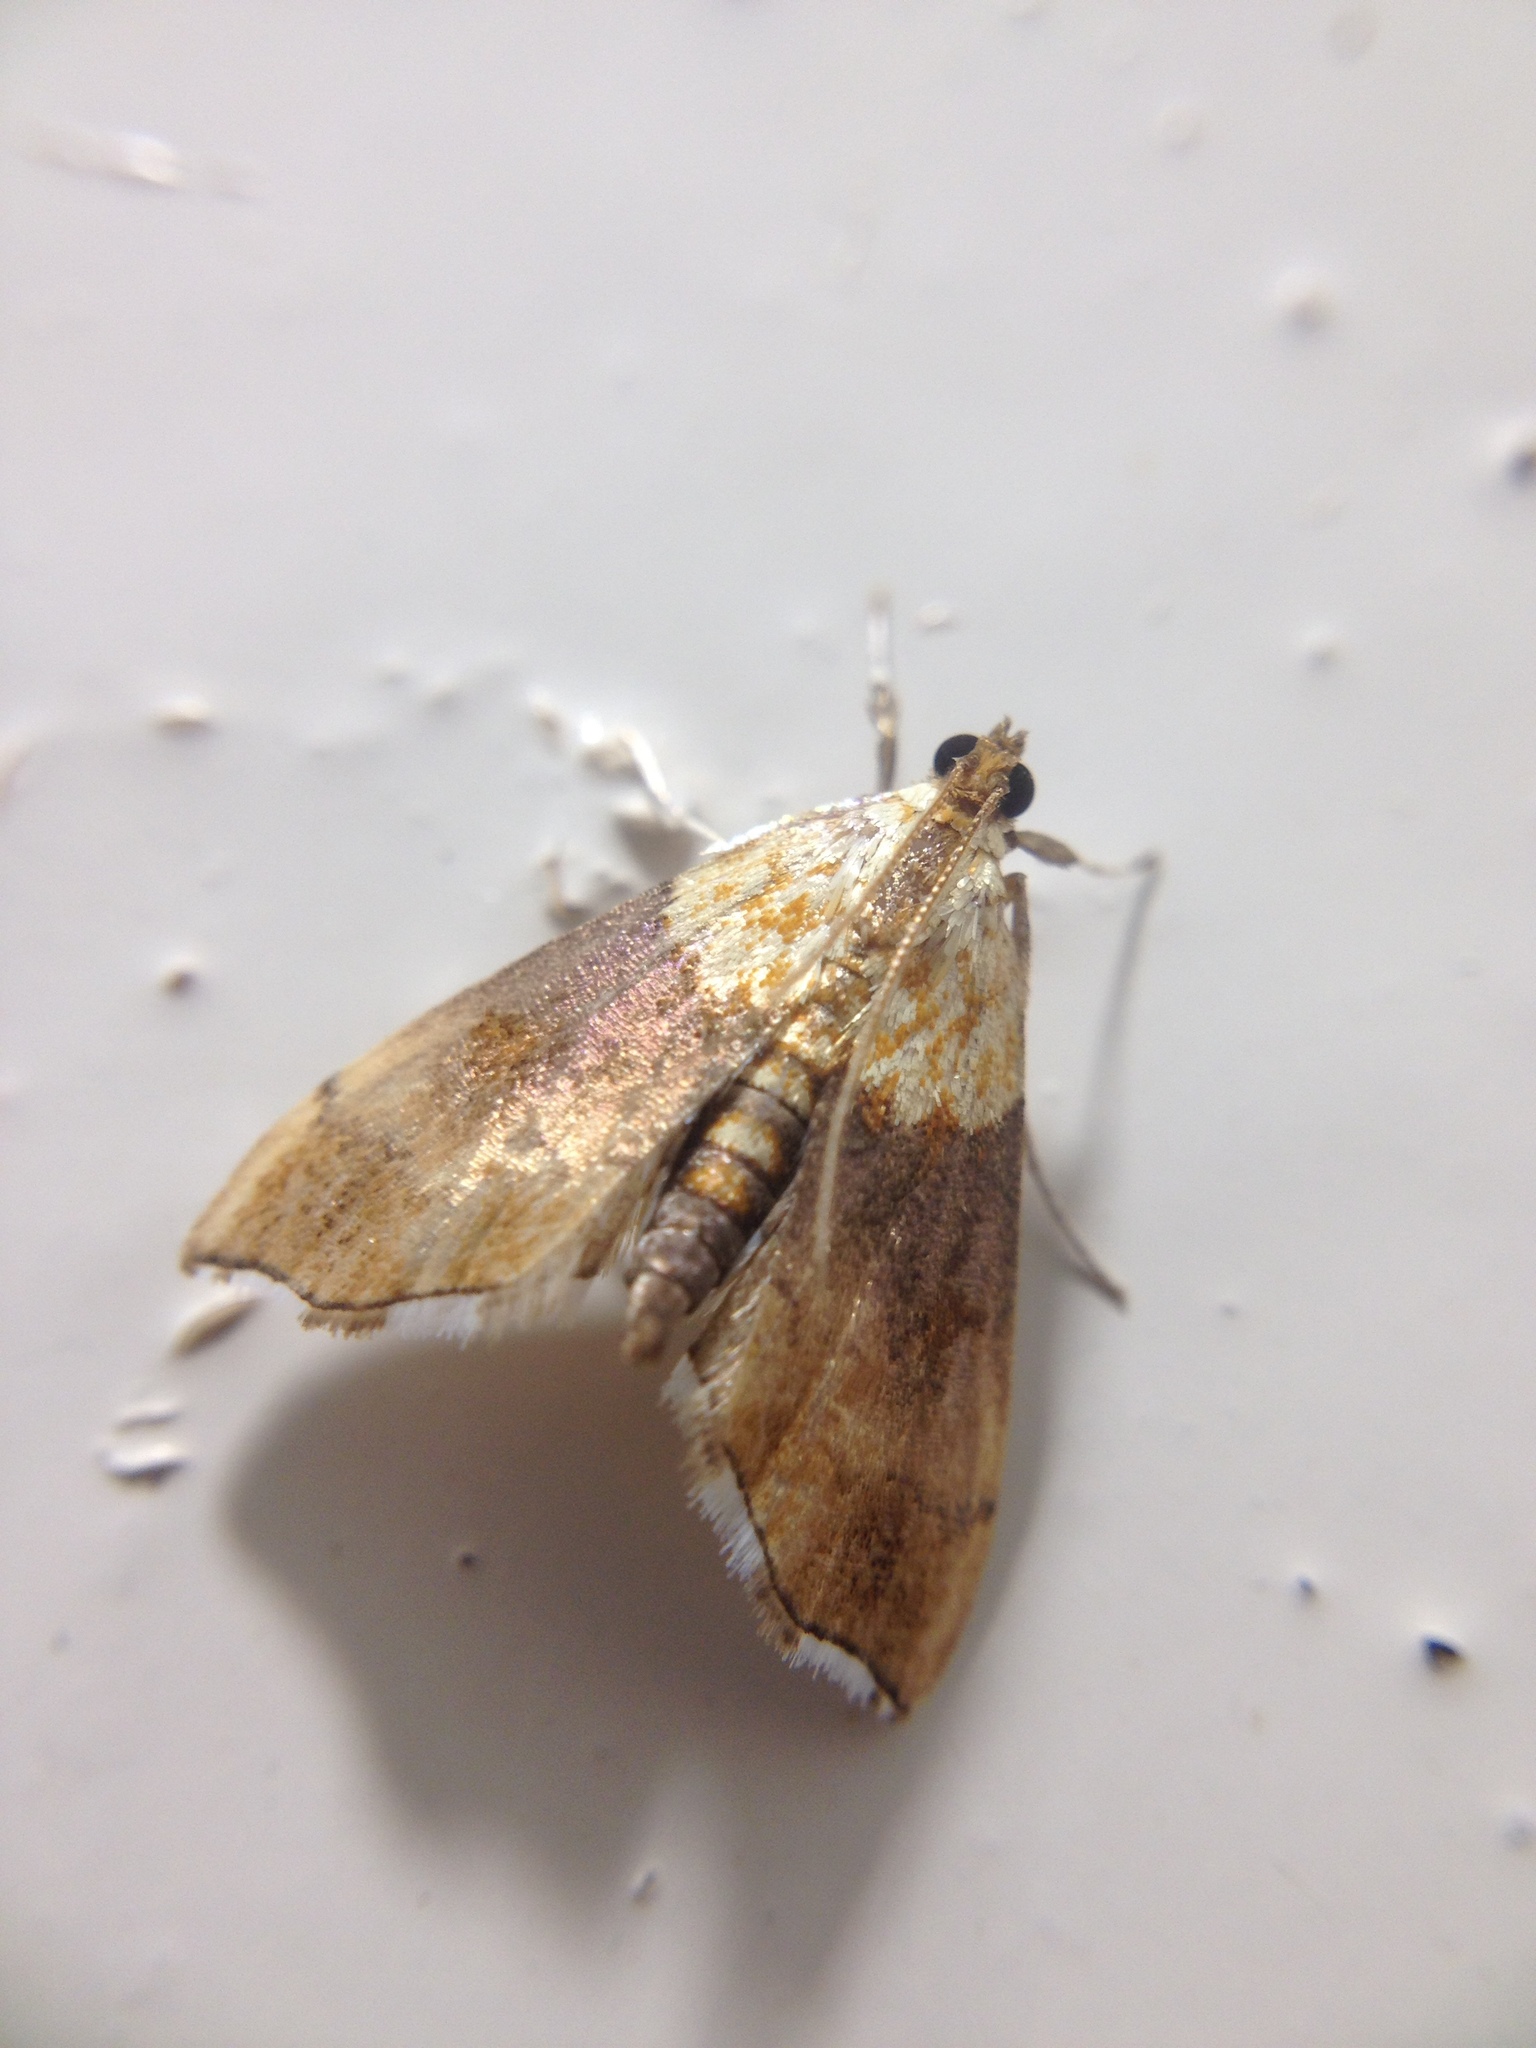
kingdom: Animalia
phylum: Arthropoda
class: Insecta
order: Lepidoptera
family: Crambidae
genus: Agrotera
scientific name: Agrotera nemoralis
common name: Beautiful pearl
